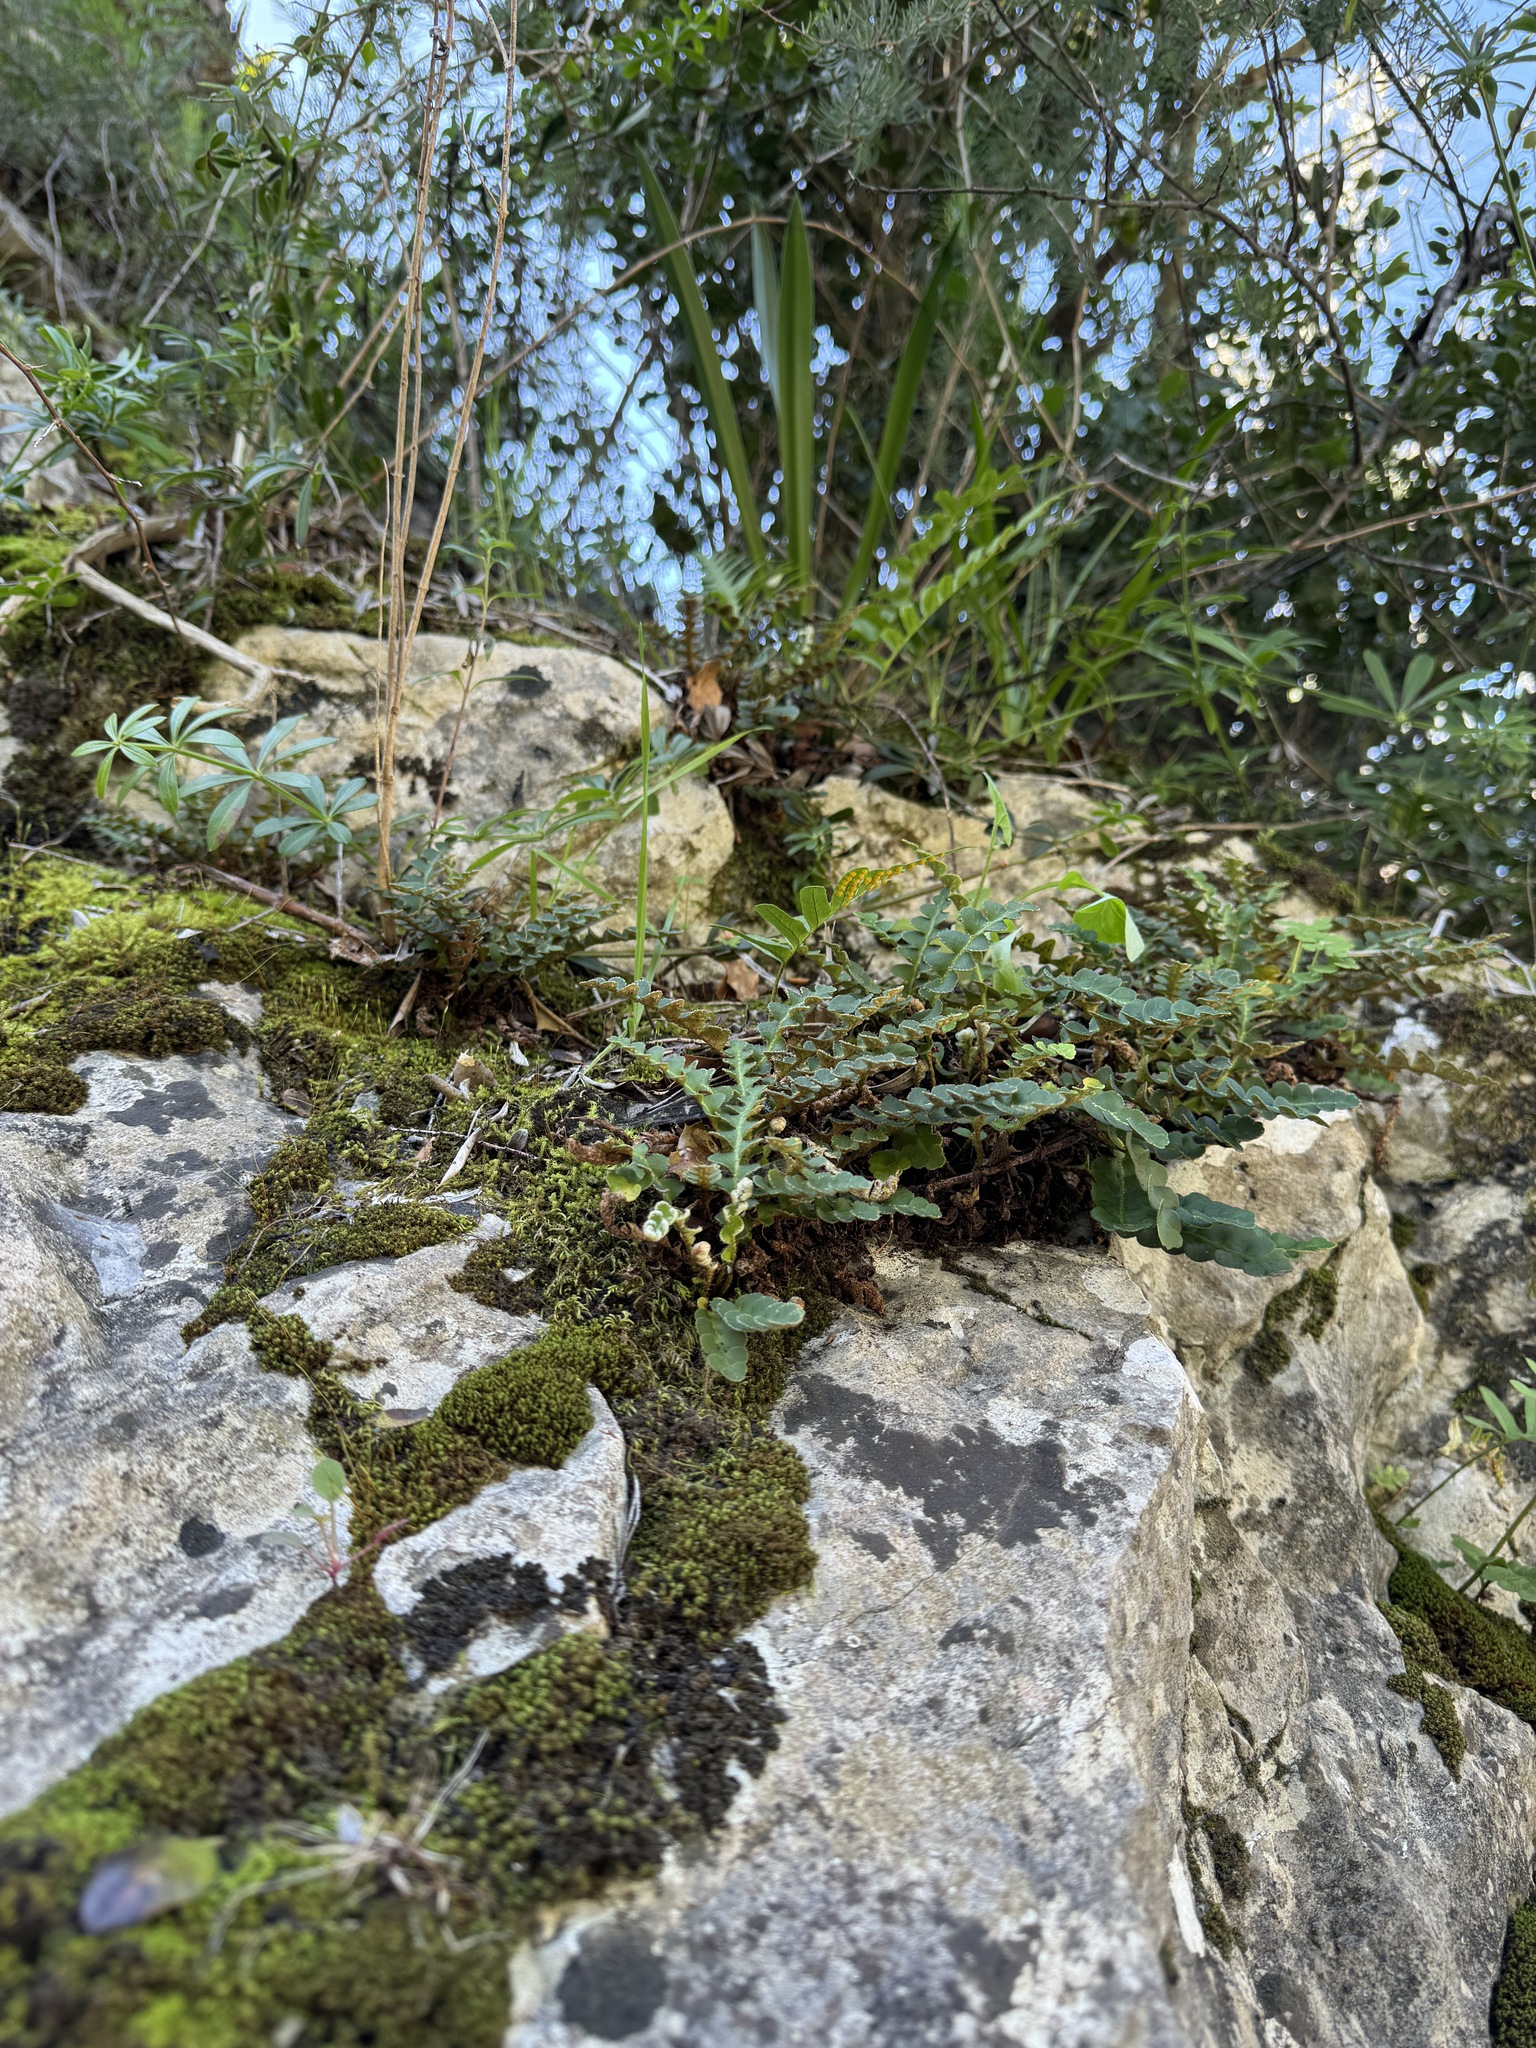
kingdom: Plantae
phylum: Tracheophyta
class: Polypodiopsida
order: Polypodiales
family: Aspleniaceae
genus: Asplenium
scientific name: Asplenium ceterach
